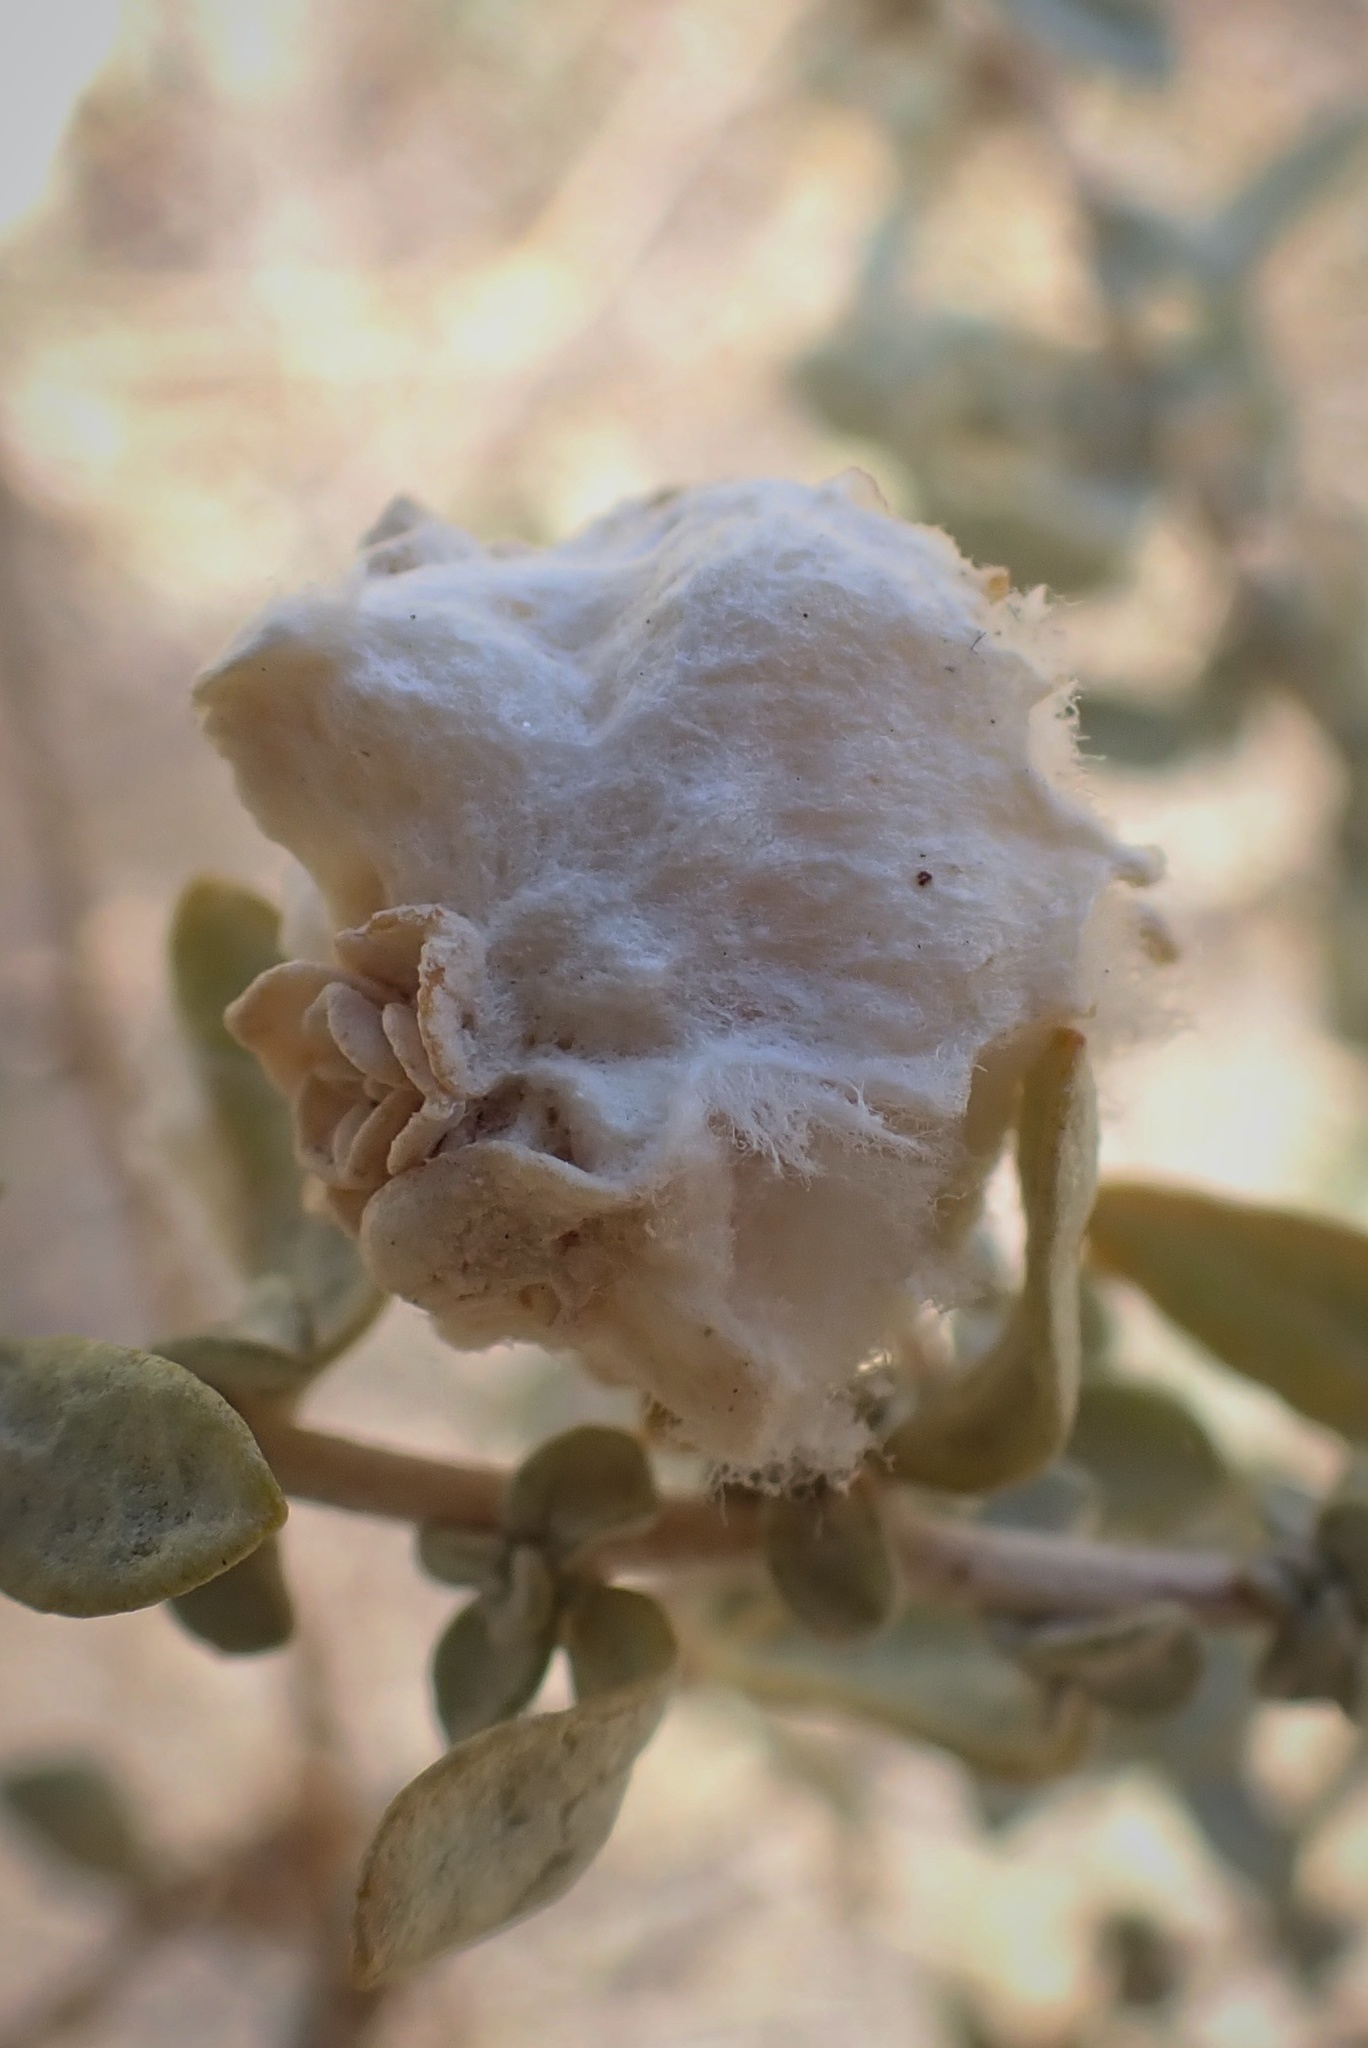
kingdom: Animalia
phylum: Arthropoda
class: Insecta
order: Diptera
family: Cecidomyiidae
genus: Asphondylia
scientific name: Asphondylia floccosa
